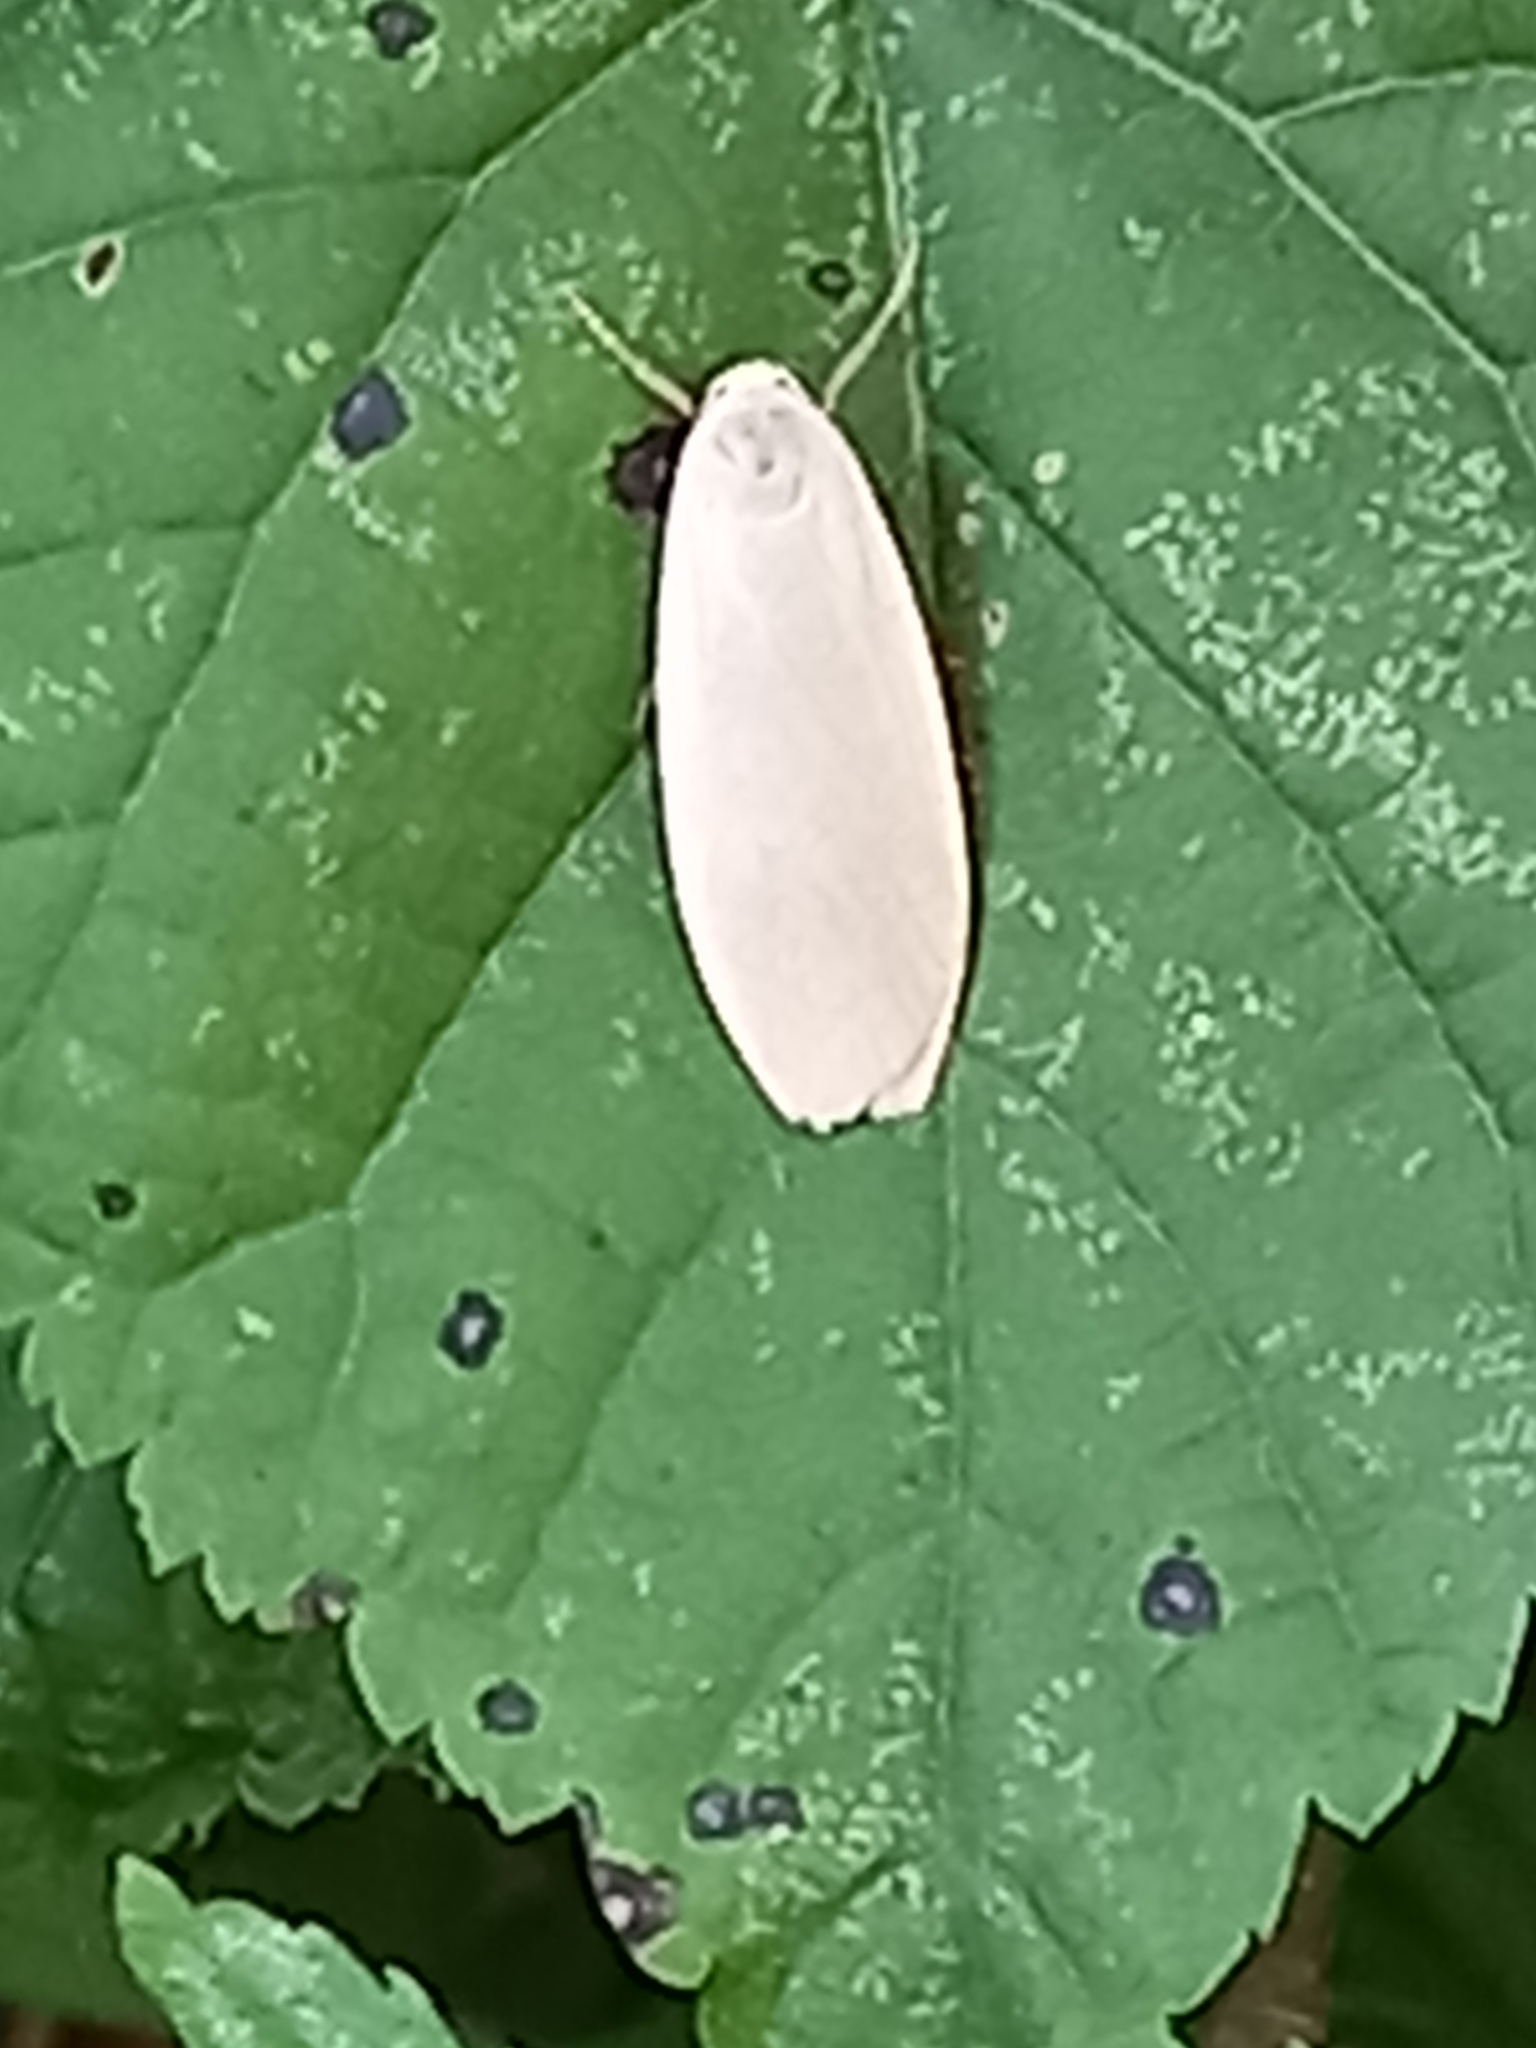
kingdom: Animalia
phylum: Arthropoda
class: Insecta
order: Lepidoptera
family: Erebidae
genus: Collita
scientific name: Collita griseola
